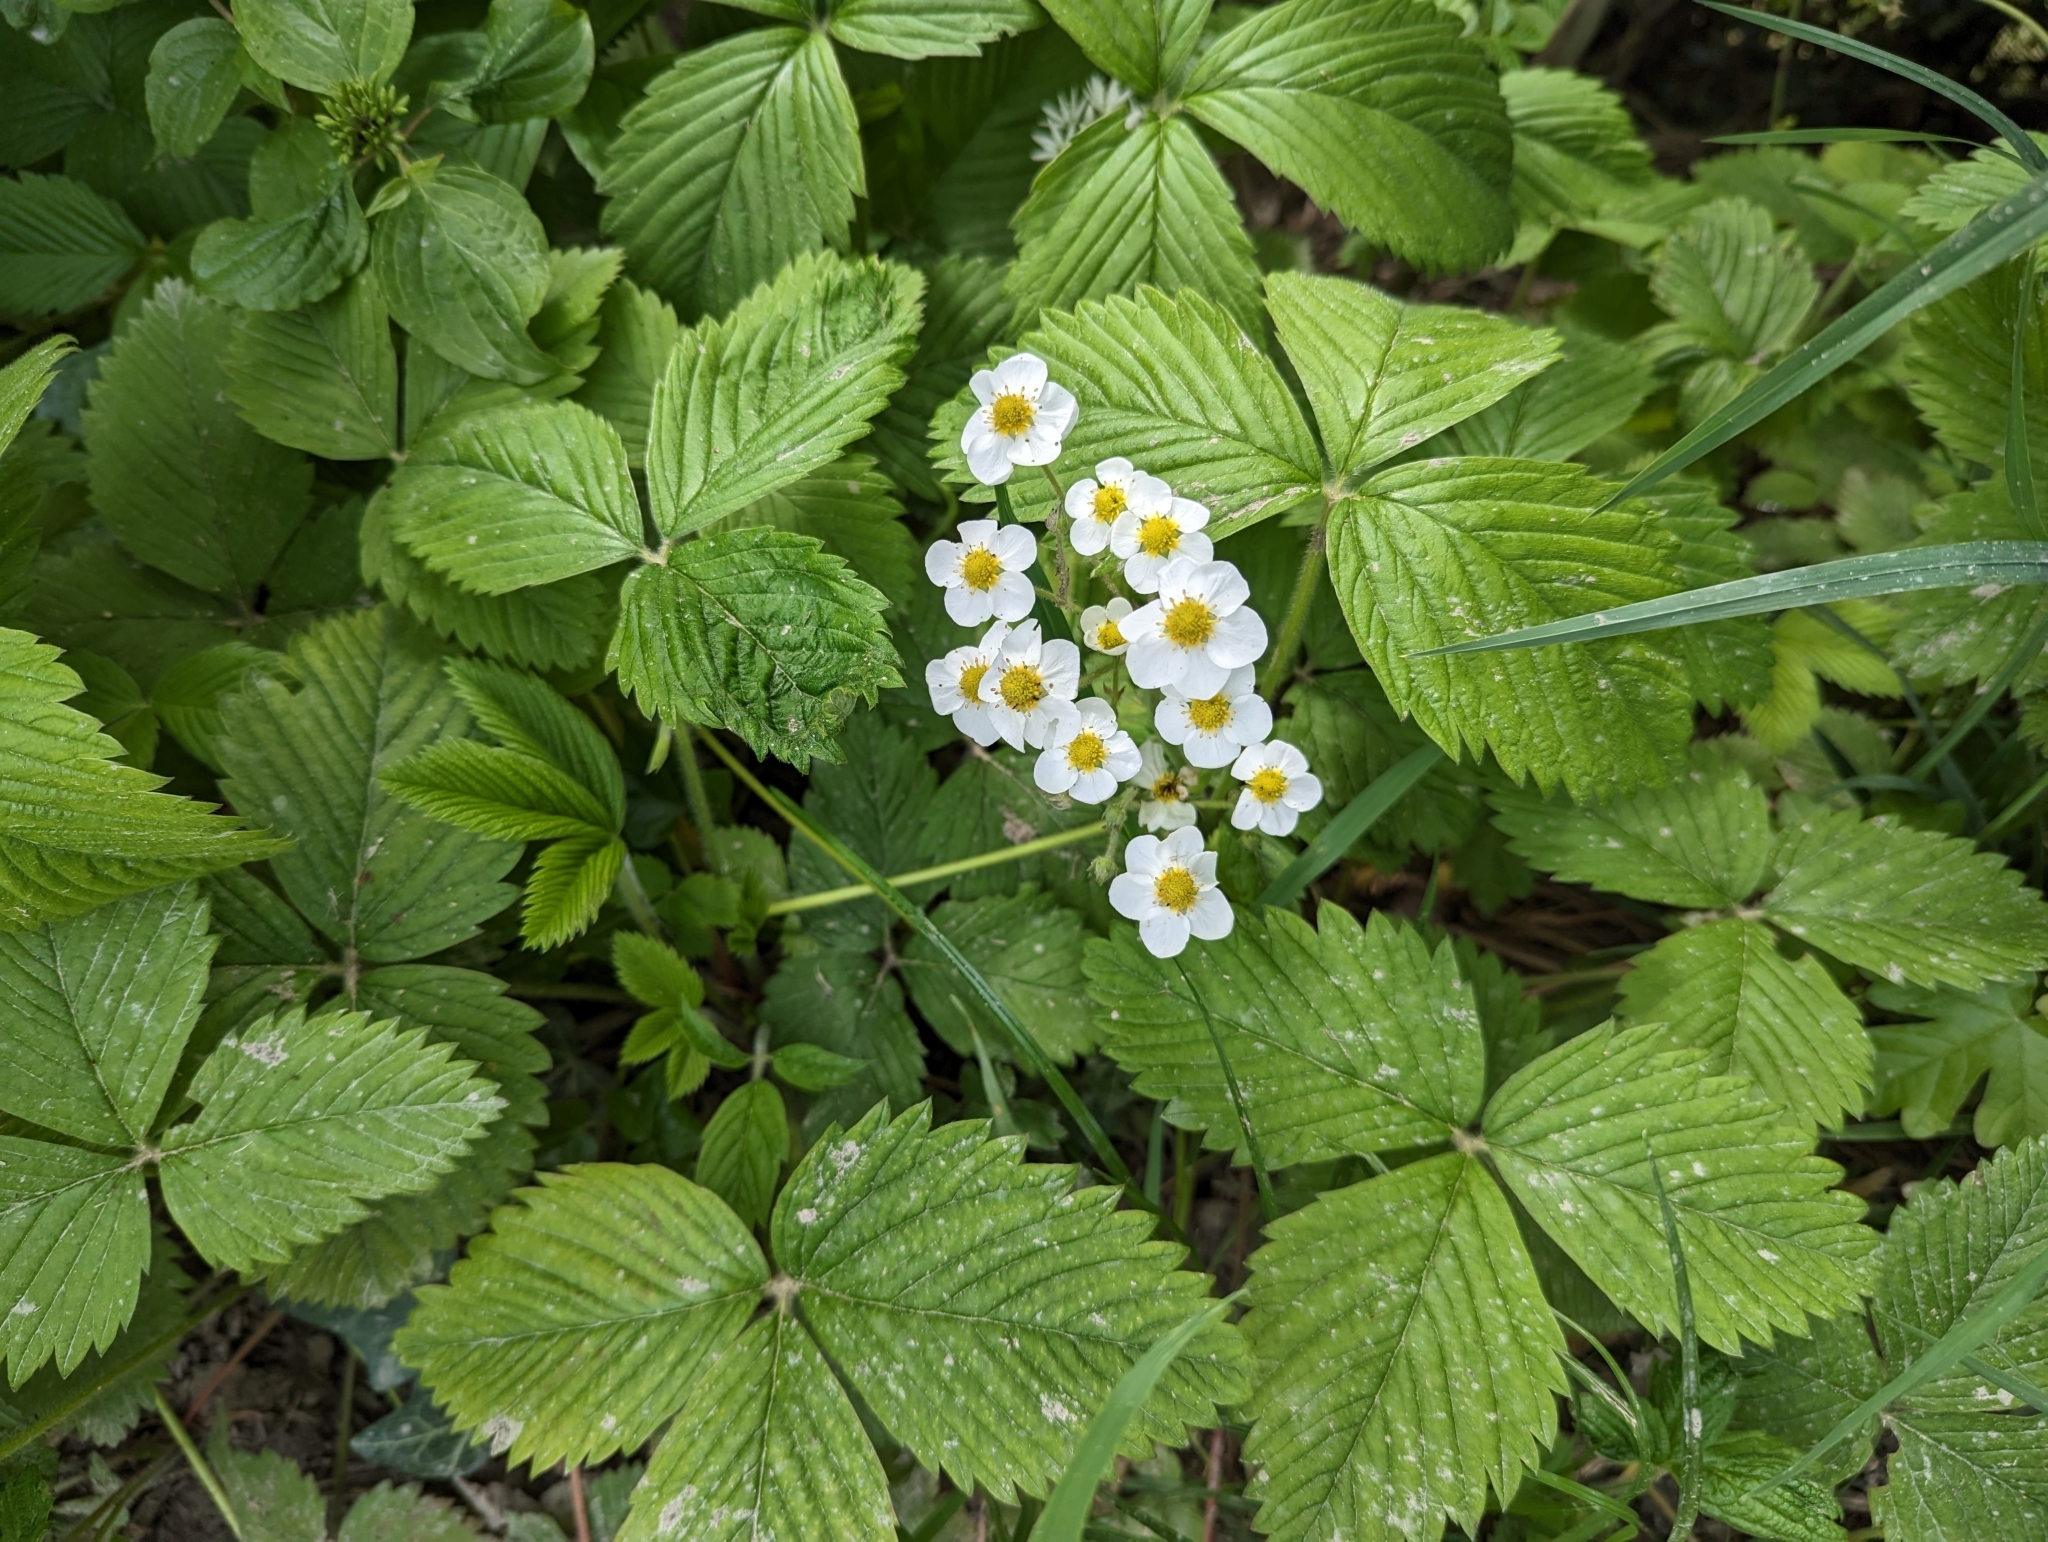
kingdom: Plantae
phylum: Tracheophyta
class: Magnoliopsida
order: Rosales
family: Rosaceae
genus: Fragaria
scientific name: Fragaria moschata
